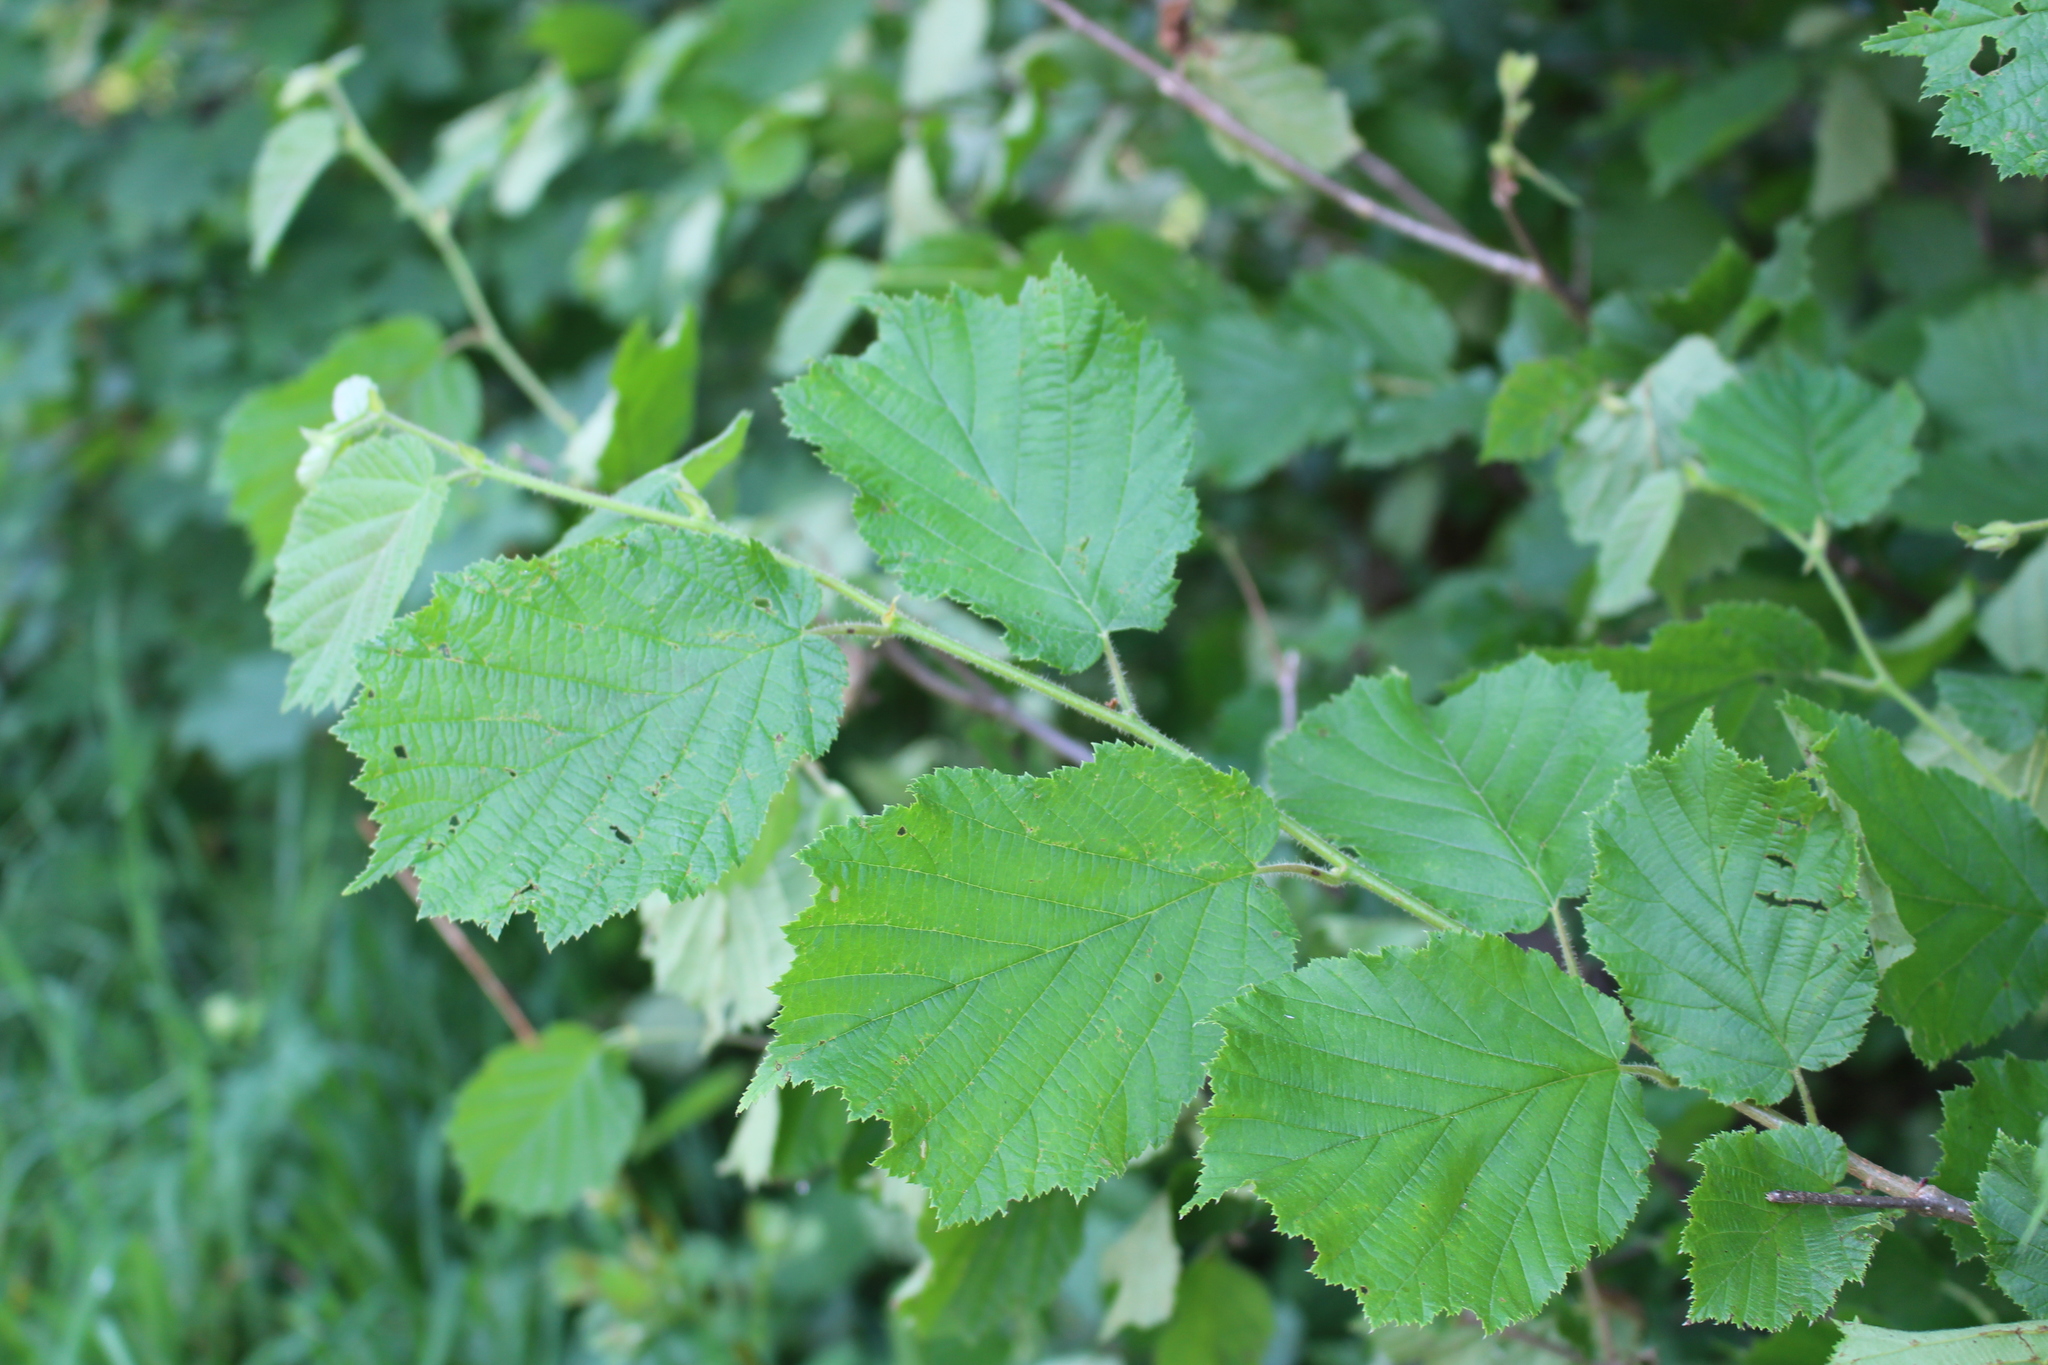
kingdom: Plantae
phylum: Tracheophyta
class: Magnoliopsida
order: Fagales
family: Betulaceae
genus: Corylus
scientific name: Corylus avellana
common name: European hazel
